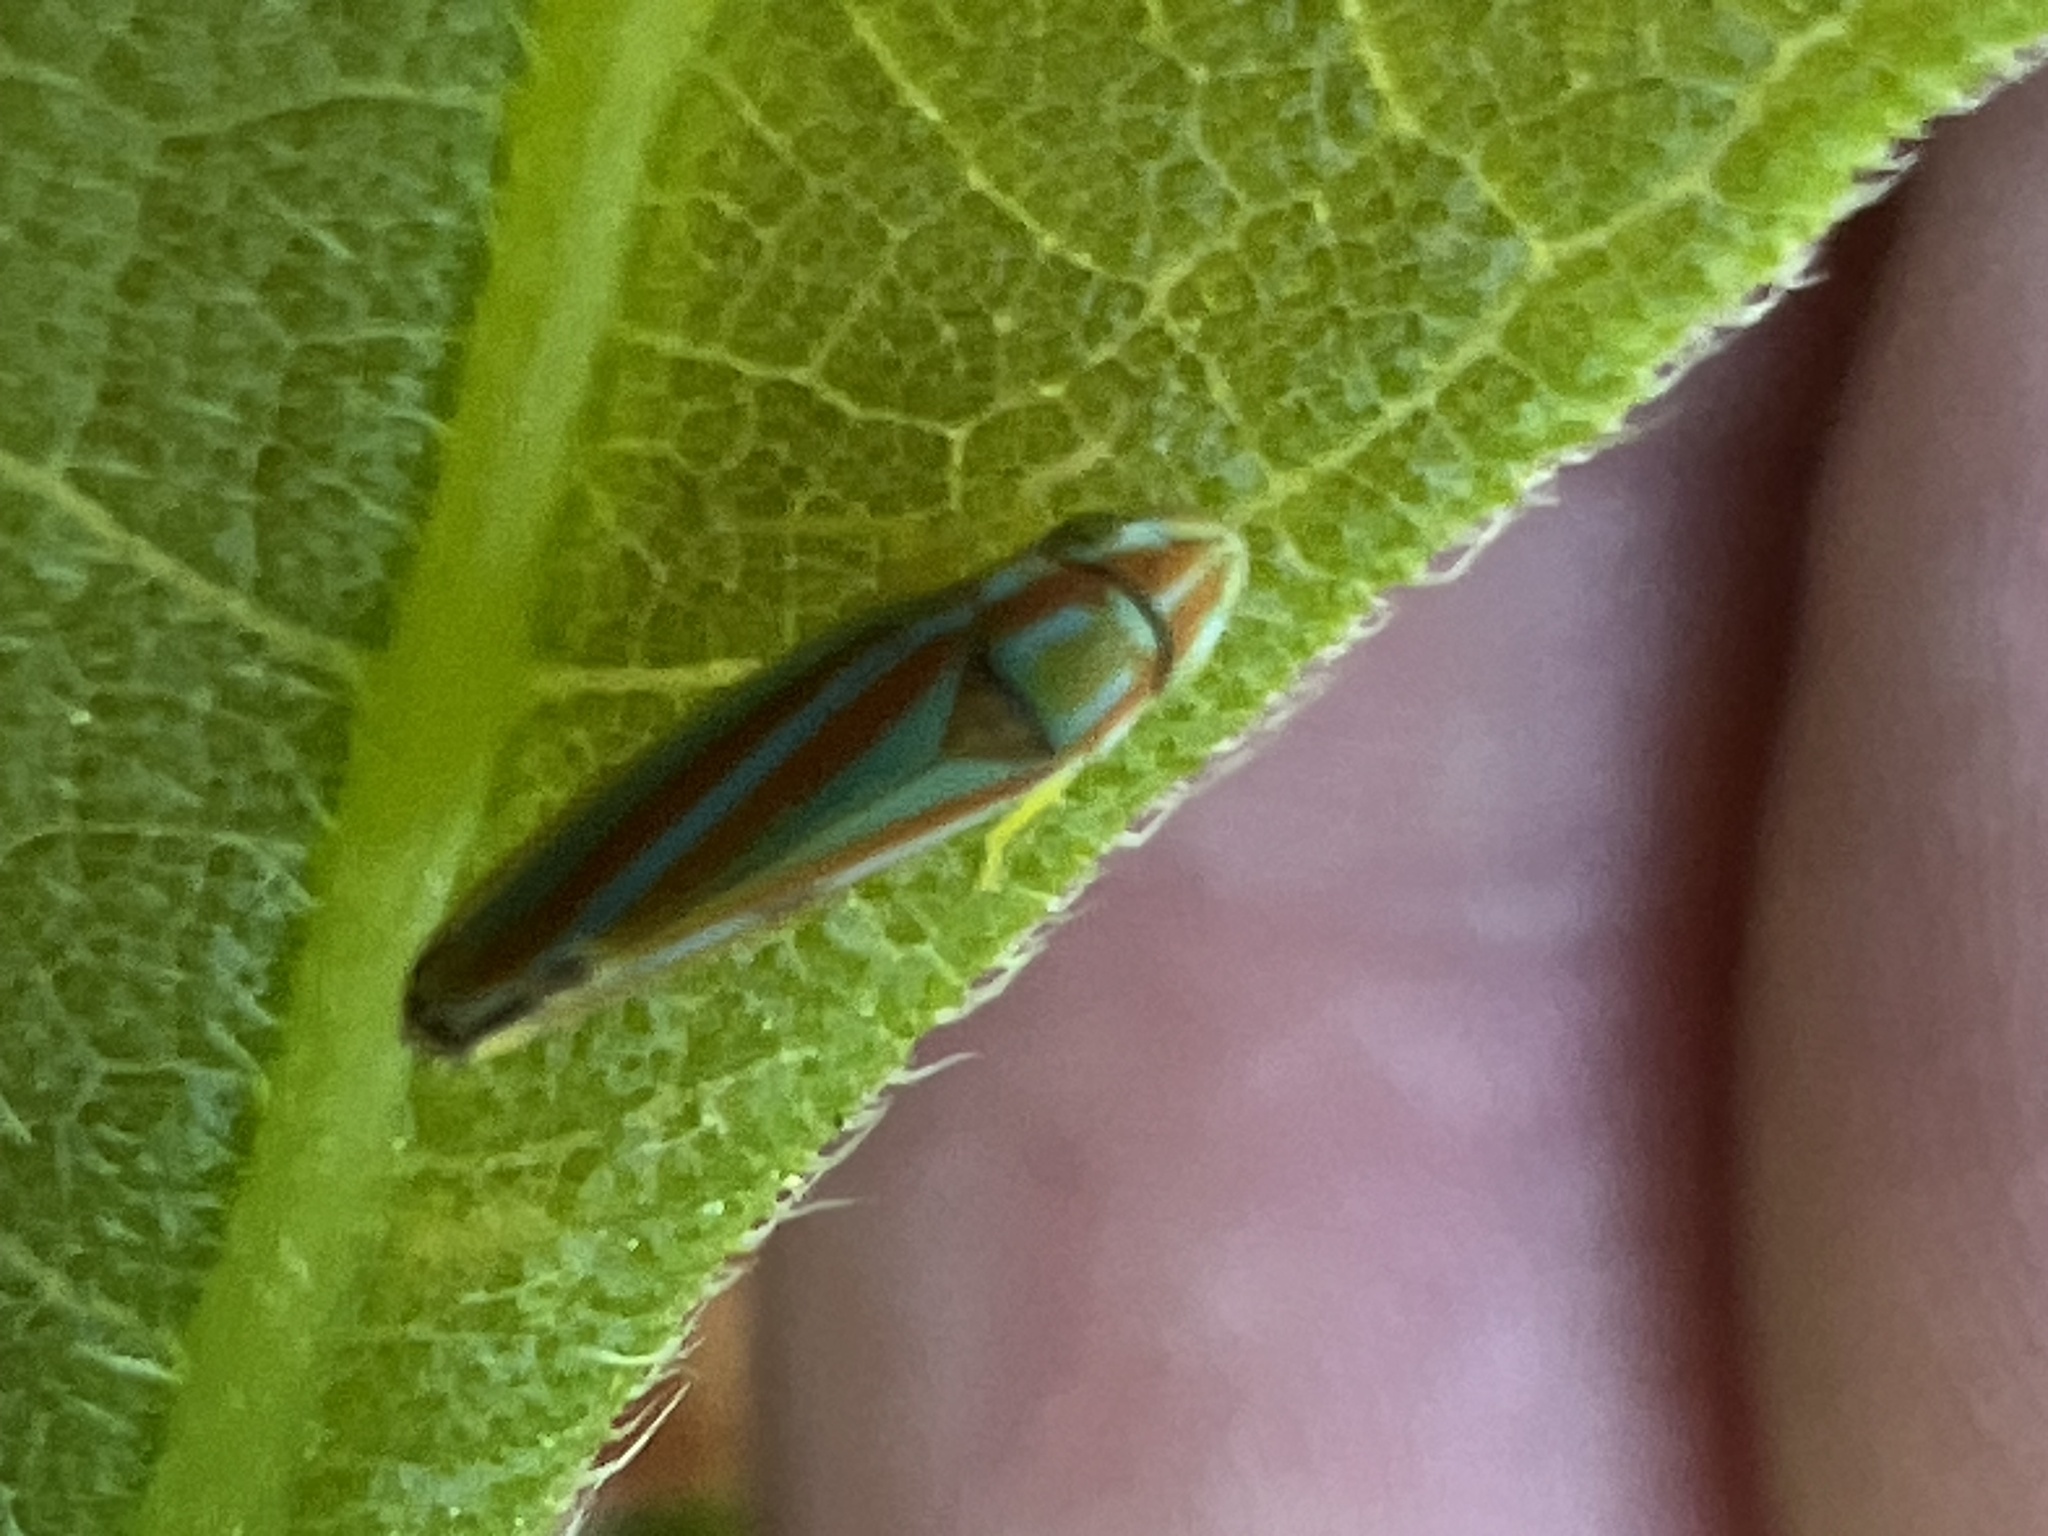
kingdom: Animalia
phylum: Arthropoda
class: Insecta
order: Hemiptera
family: Cicadellidae
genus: Graphocephala
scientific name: Graphocephala versuta
